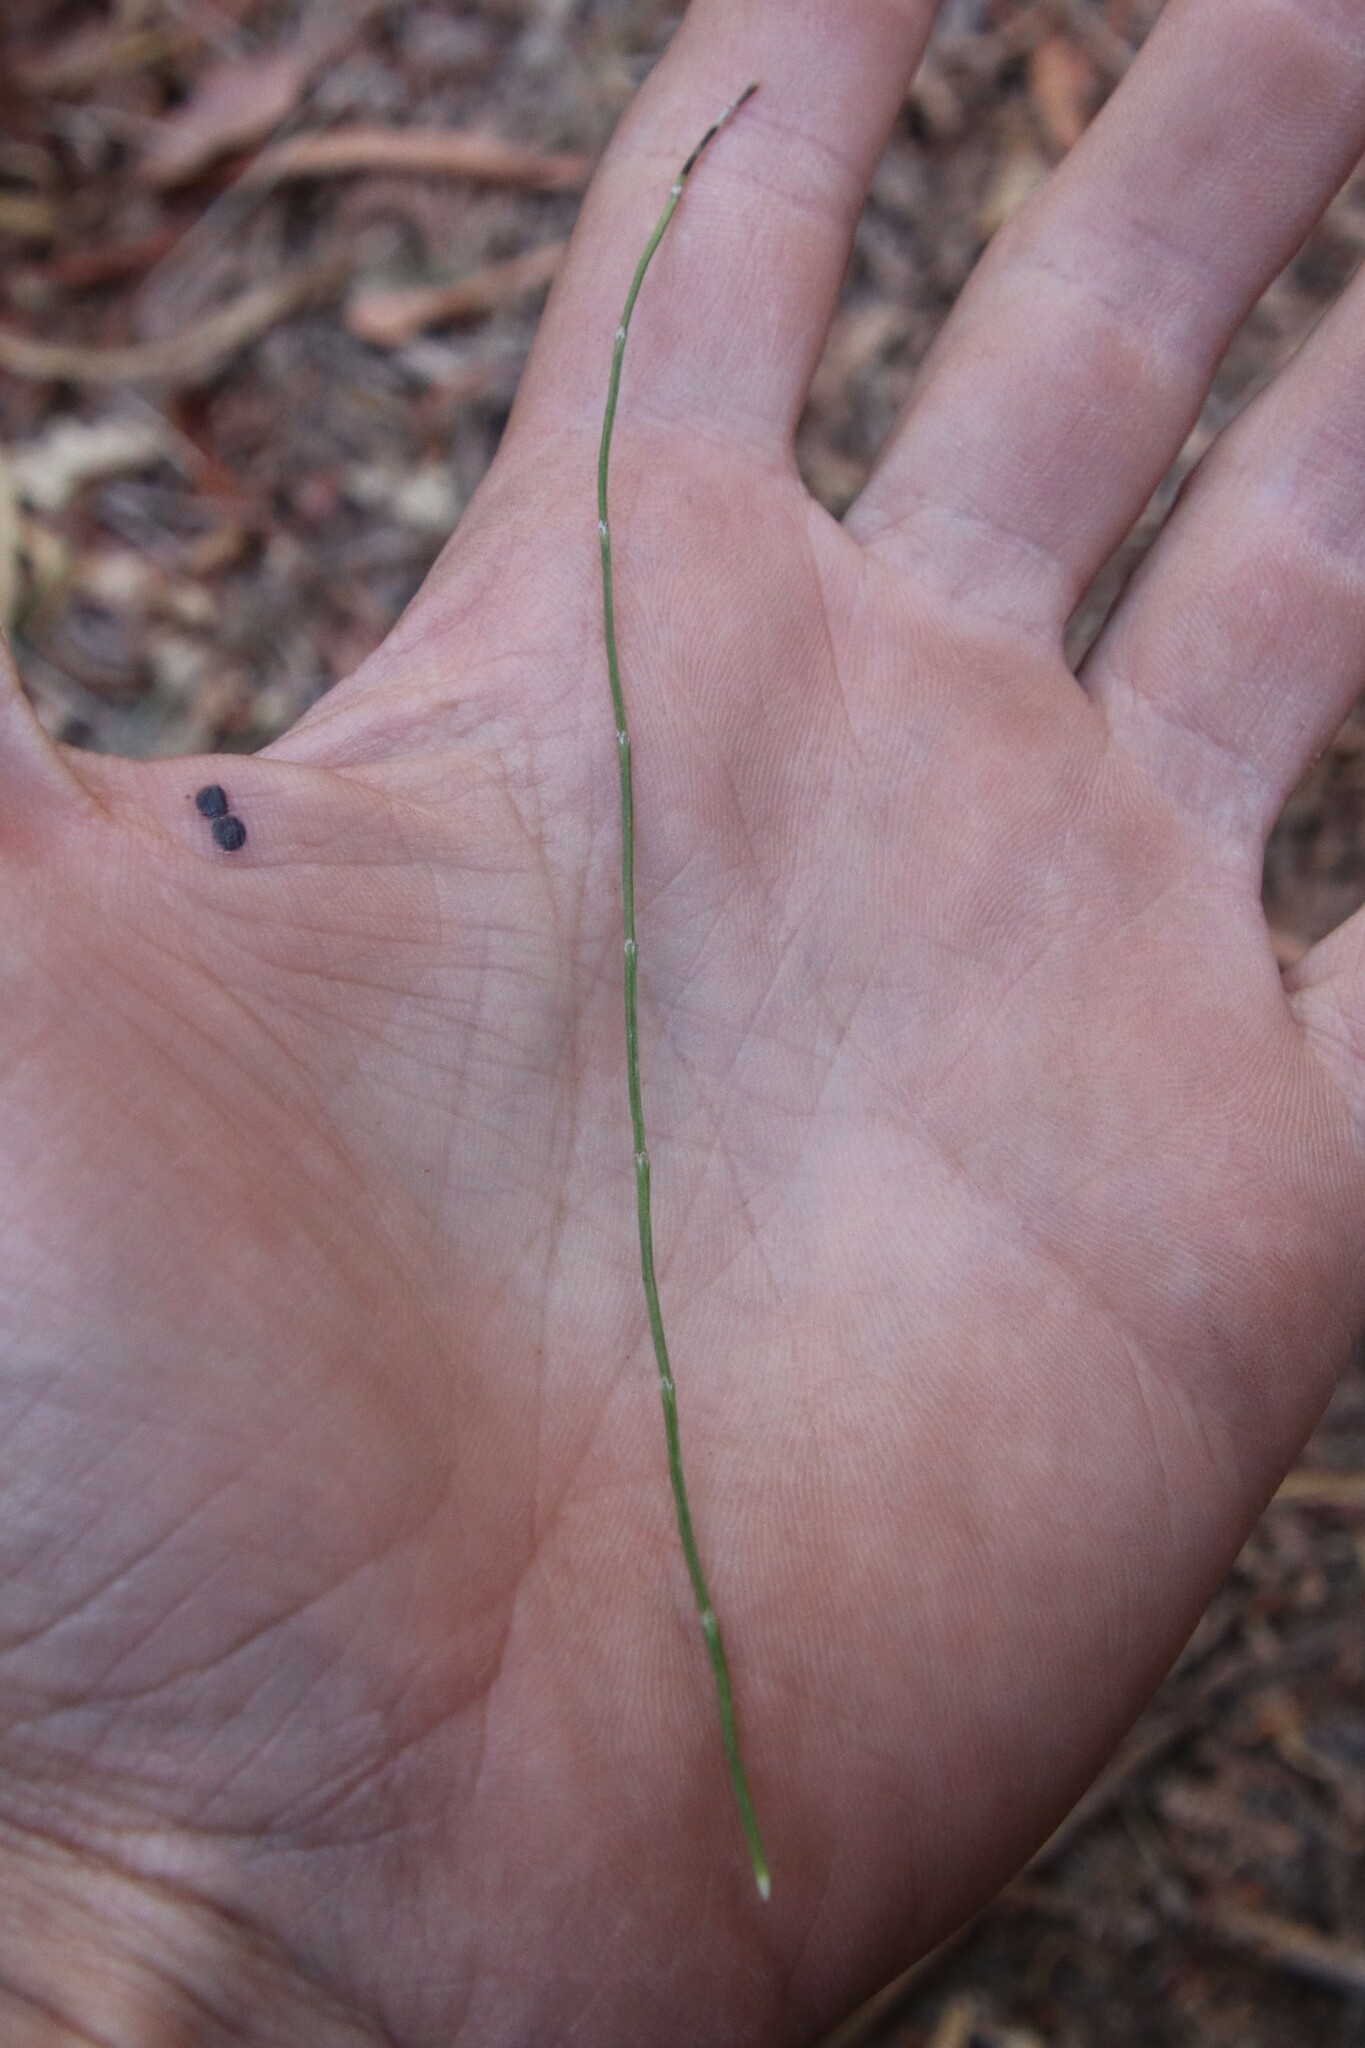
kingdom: Plantae
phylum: Tracheophyta
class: Polypodiopsida
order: Equisetales
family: Equisetaceae
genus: Equisetum
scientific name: Equisetum bogotense
